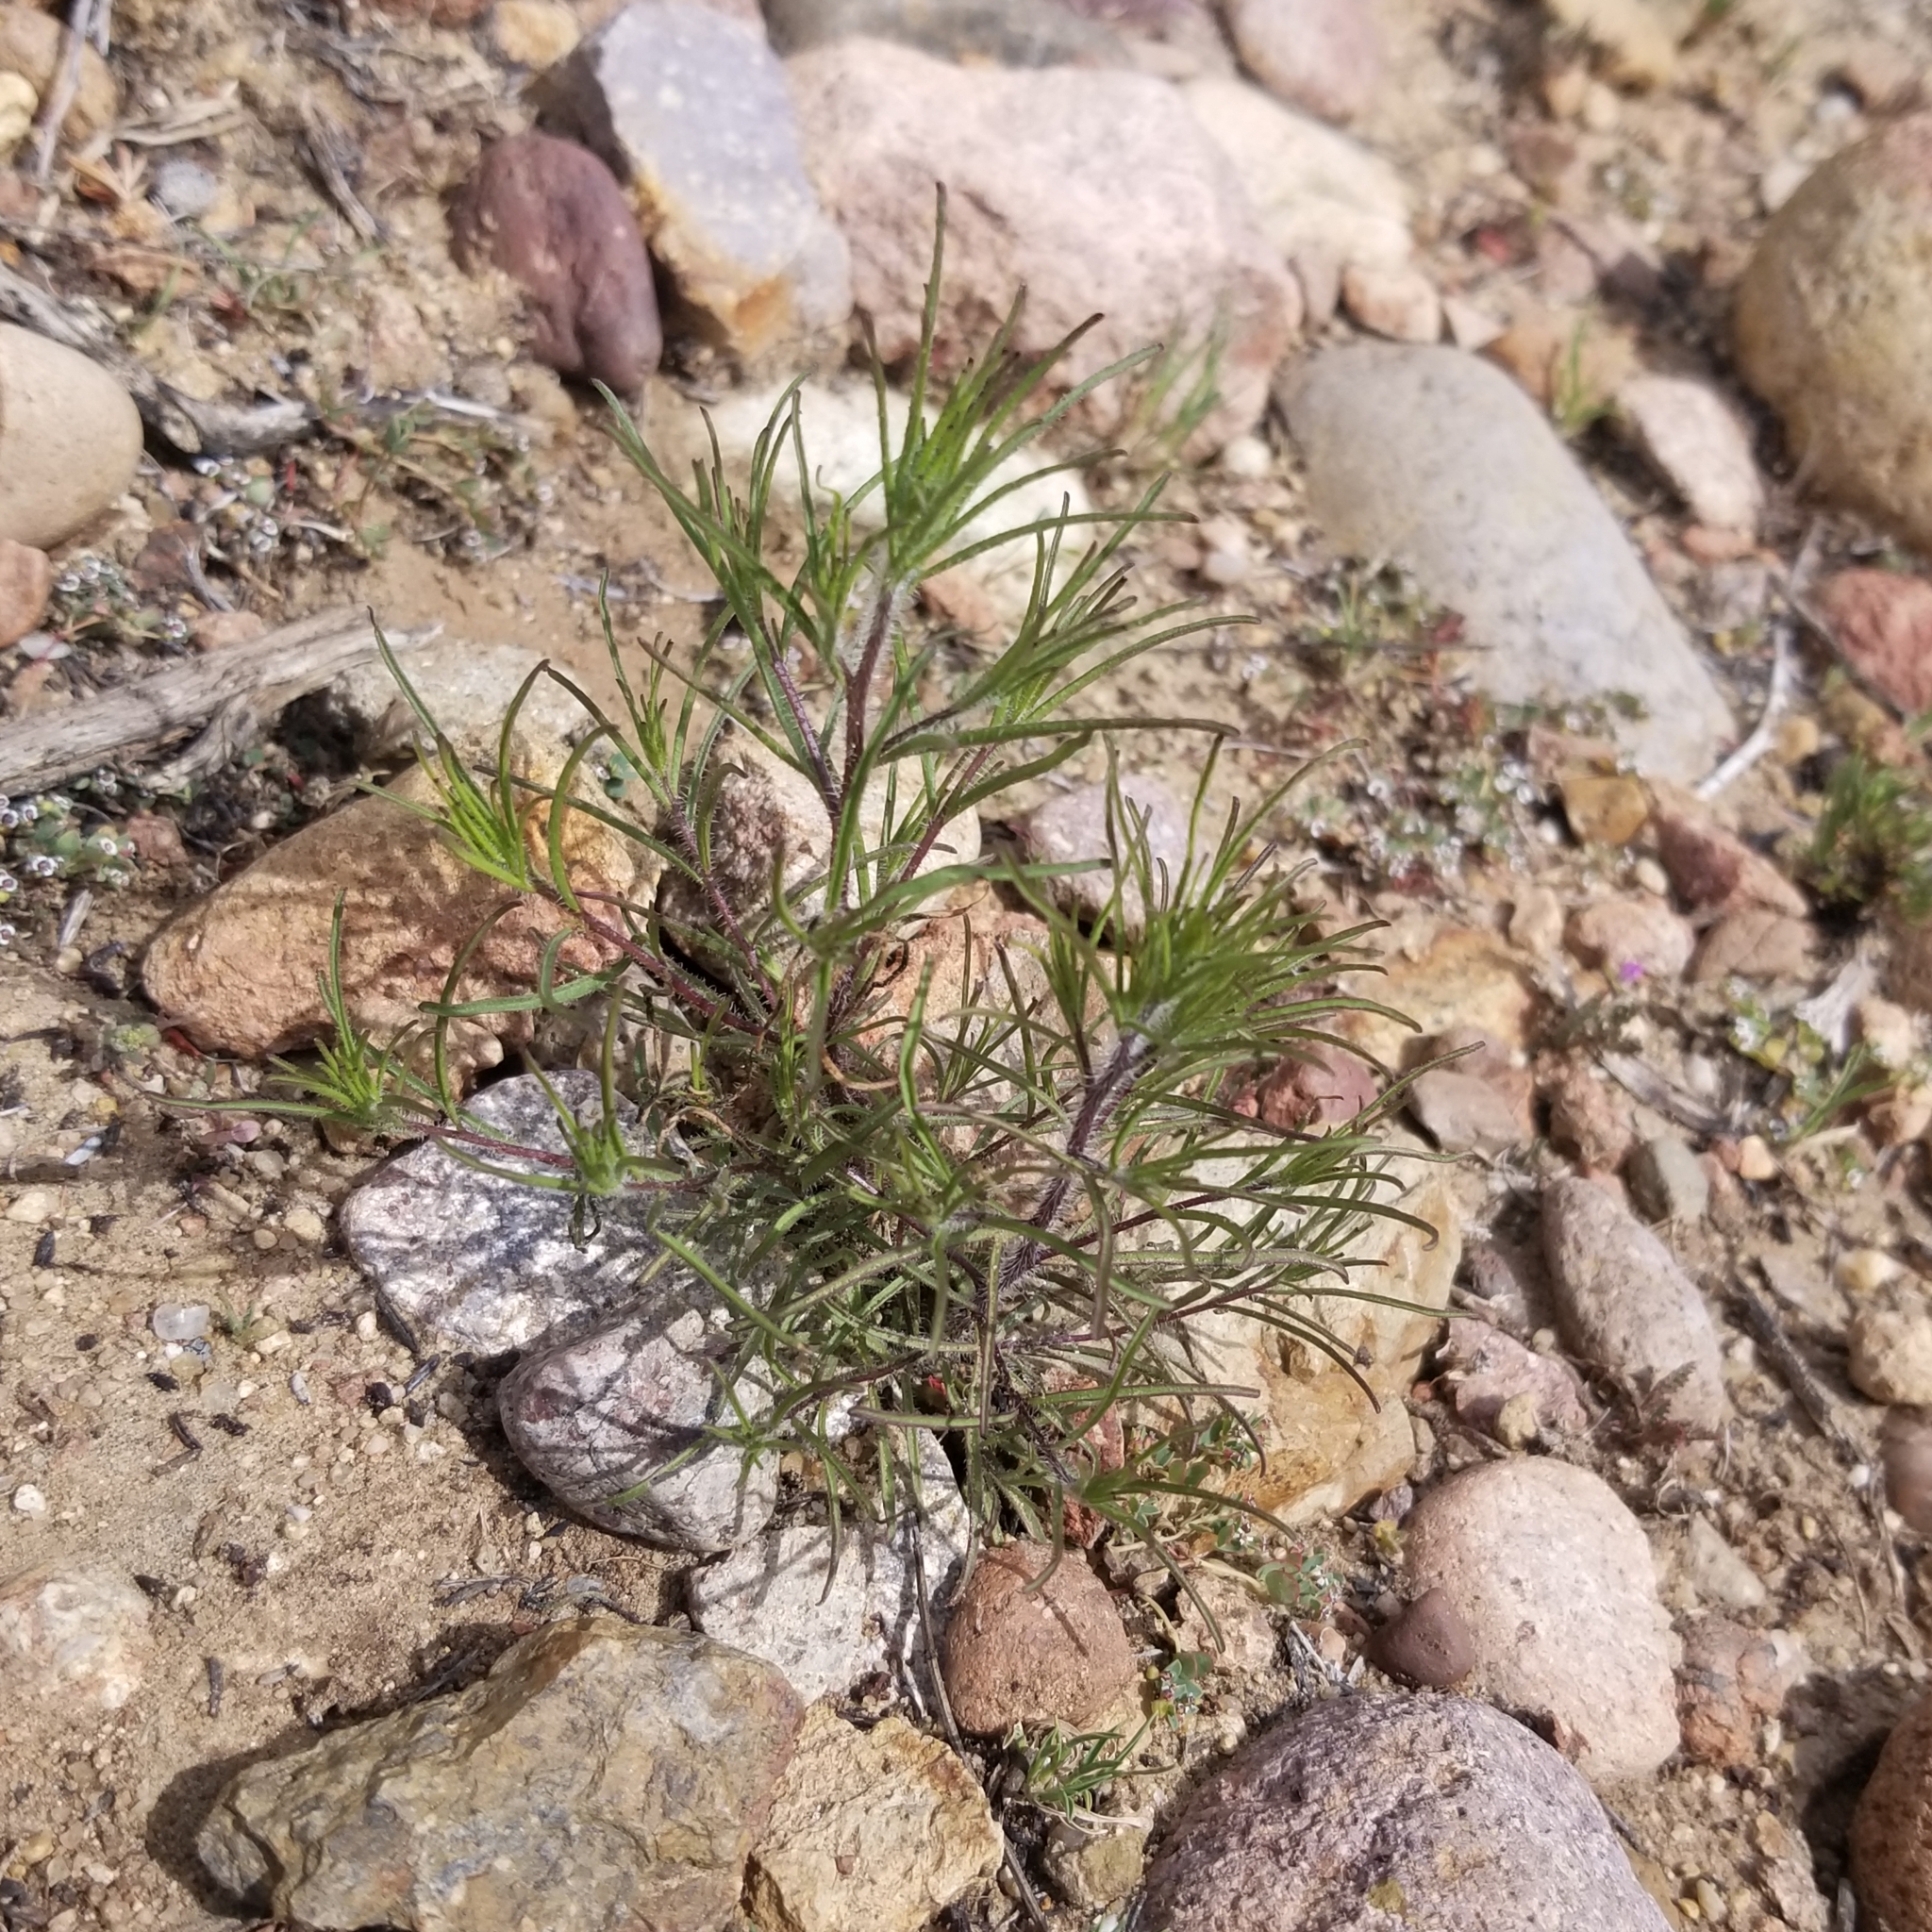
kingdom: Plantae
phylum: Tracheophyta
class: Magnoliopsida
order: Lamiales
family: Orobanchaceae
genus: Cordylanthus
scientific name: Cordylanthus rigidus
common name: Stiff-branch bird's-beak
